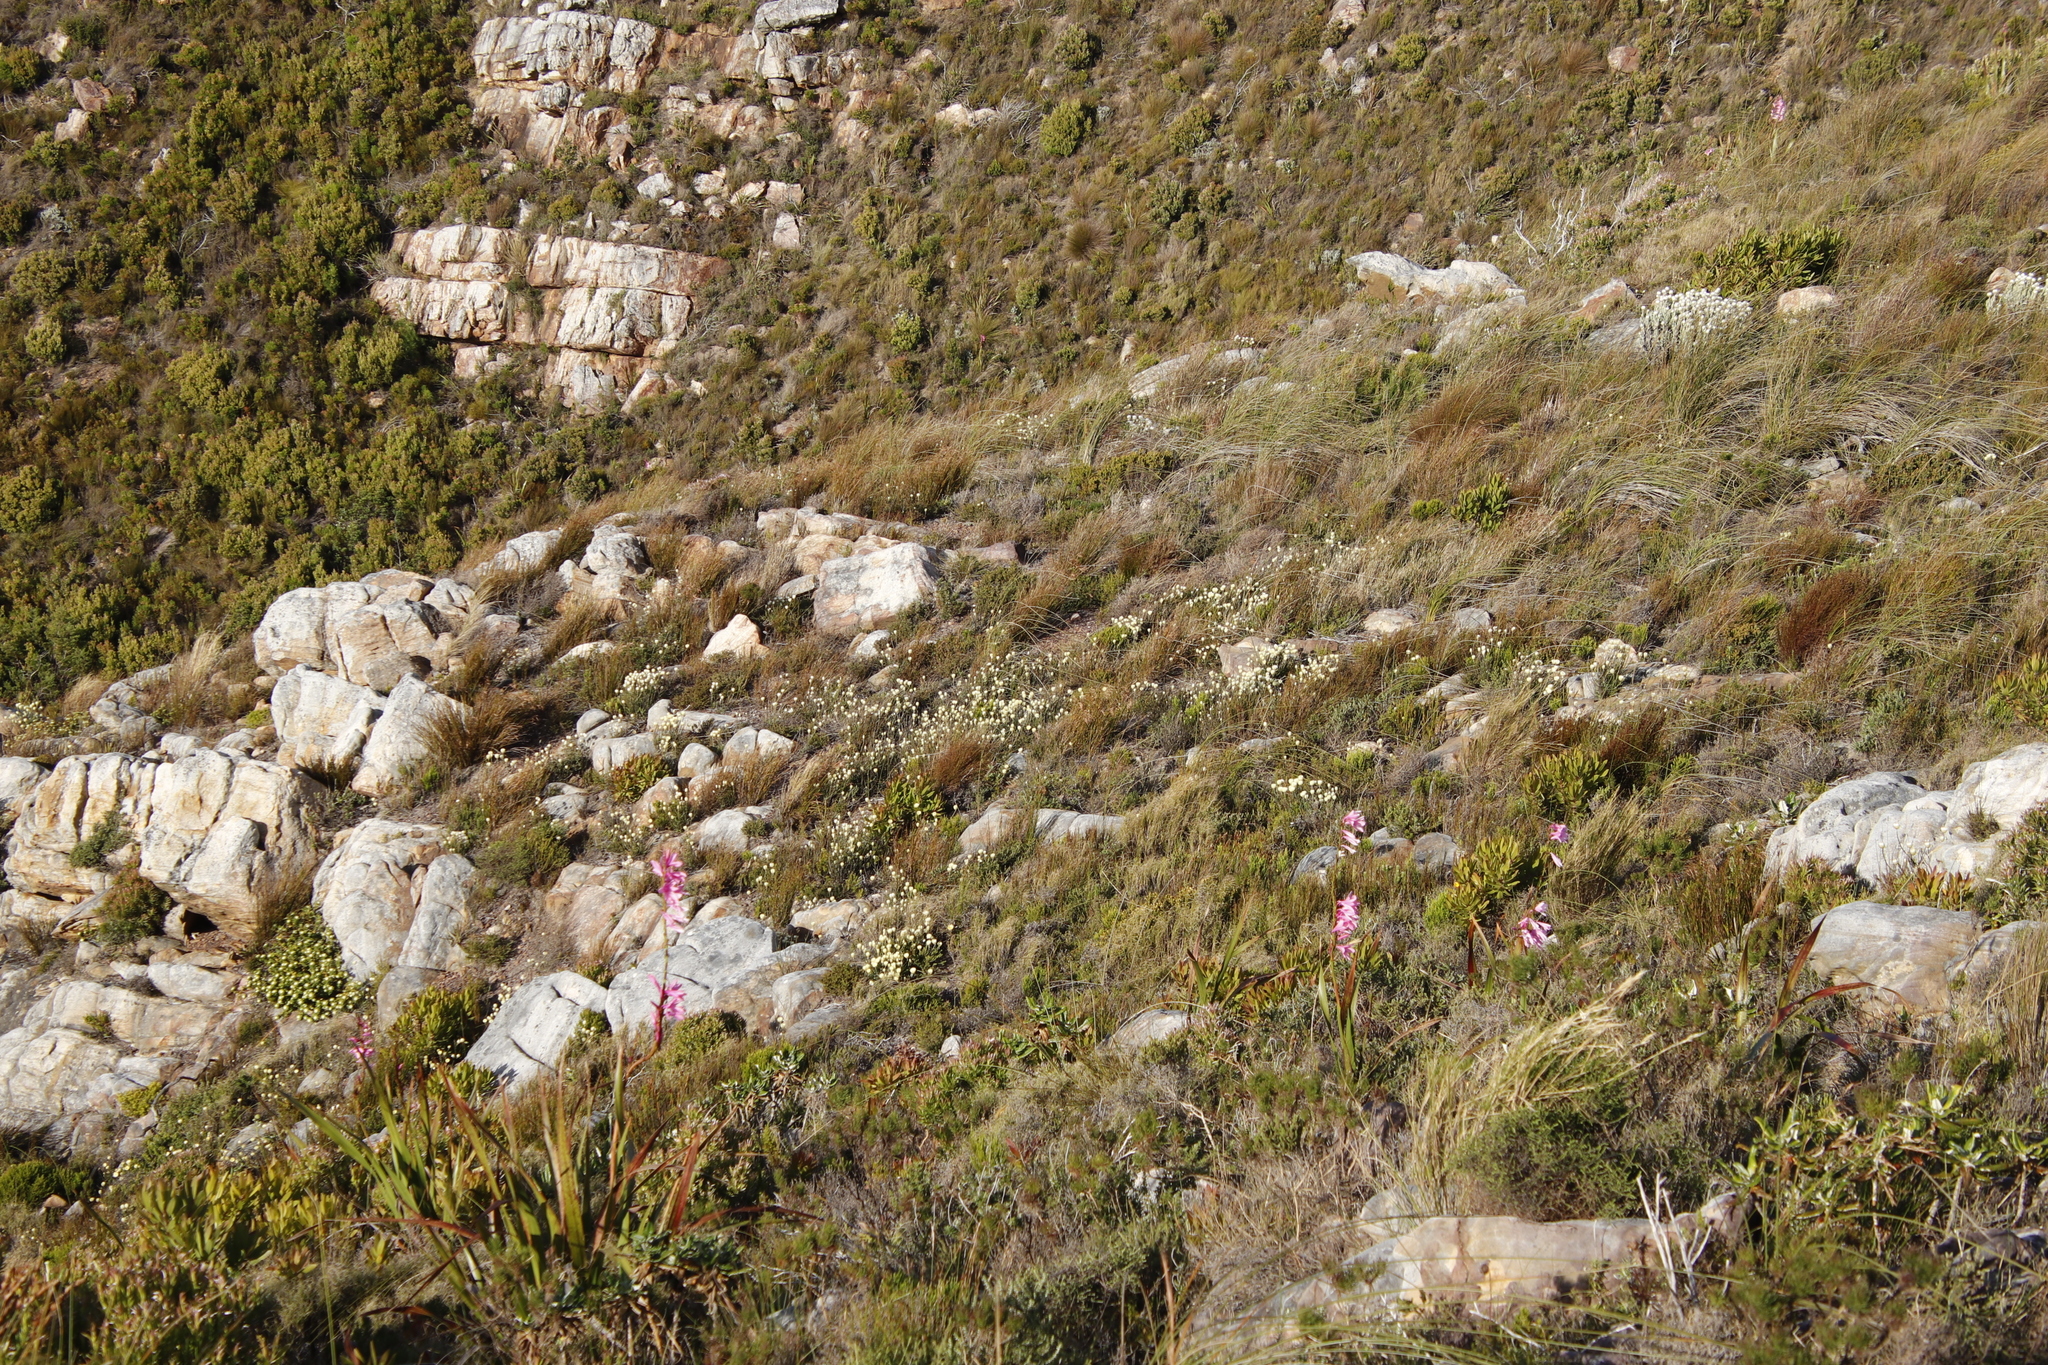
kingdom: Plantae
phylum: Tracheophyta
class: Magnoliopsida
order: Asterales
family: Asteraceae
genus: Edmondia
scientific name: Edmondia sesamoides
